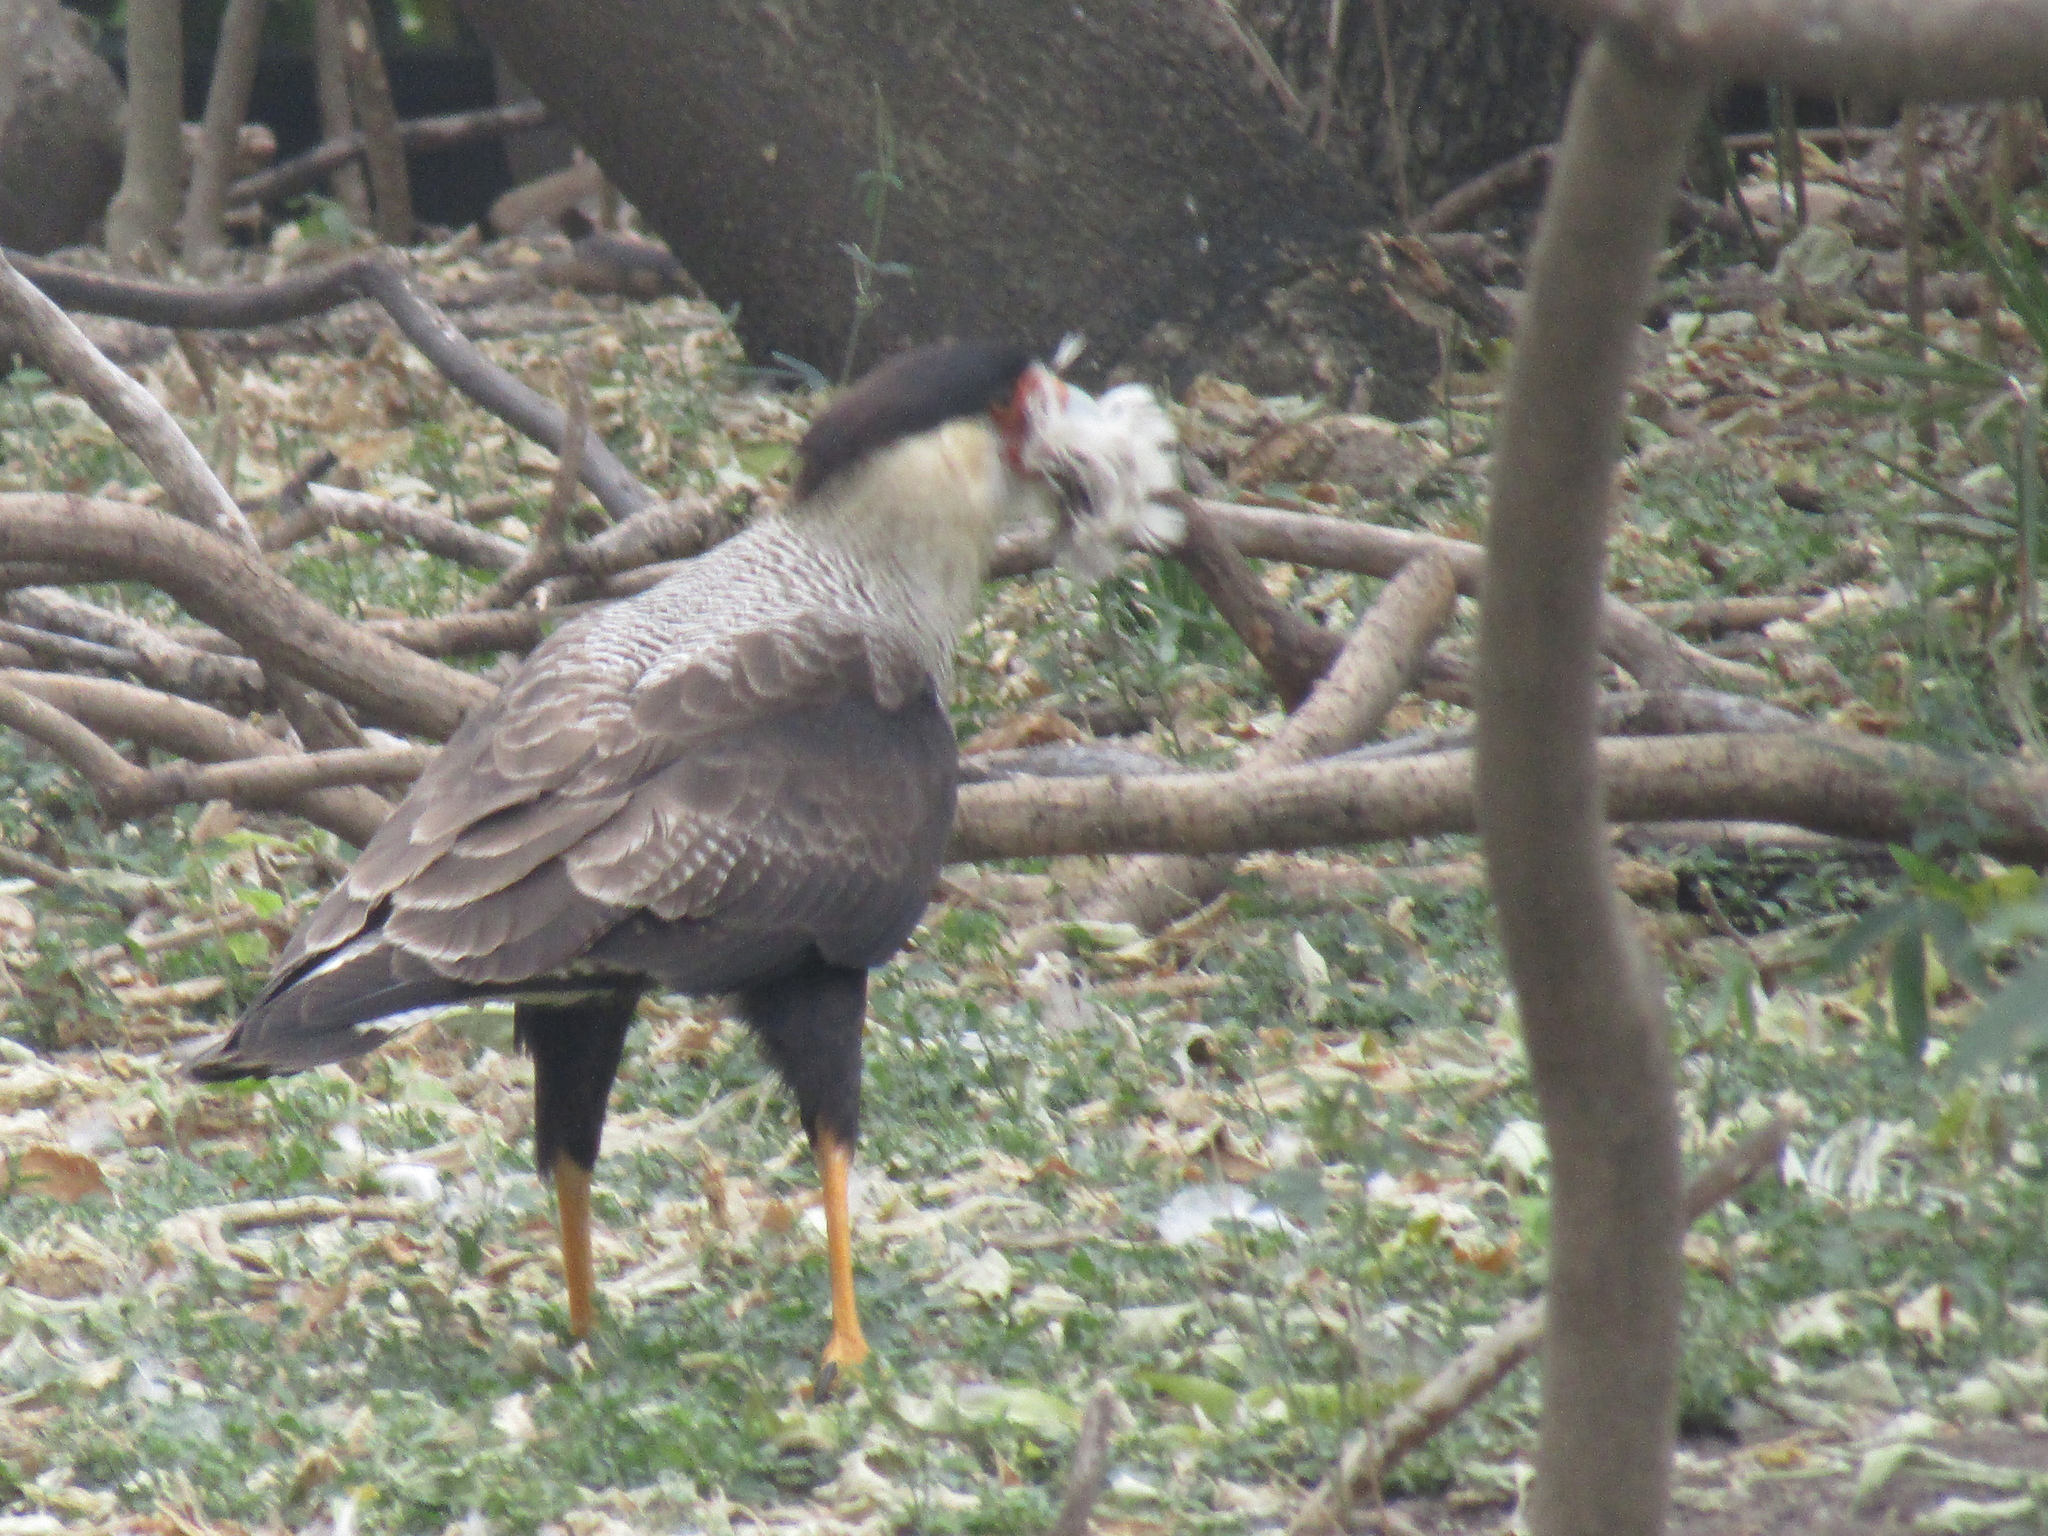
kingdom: Animalia
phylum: Chordata
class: Aves
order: Falconiformes
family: Falconidae
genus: Caracara
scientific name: Caracara plancus
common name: Southern caracara
